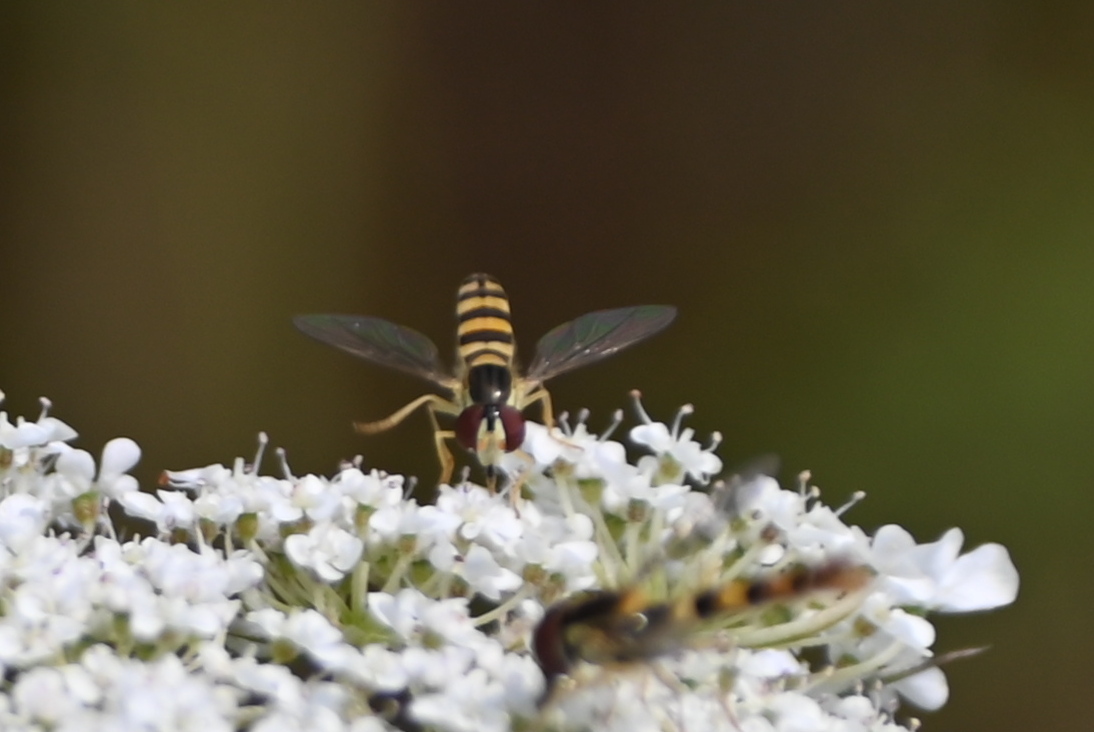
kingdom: Animalia
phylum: Arthropoda
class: Insecta
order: Diptera
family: Syrphidae
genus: Sphaerophoria
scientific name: Sphaerophoria scripta
